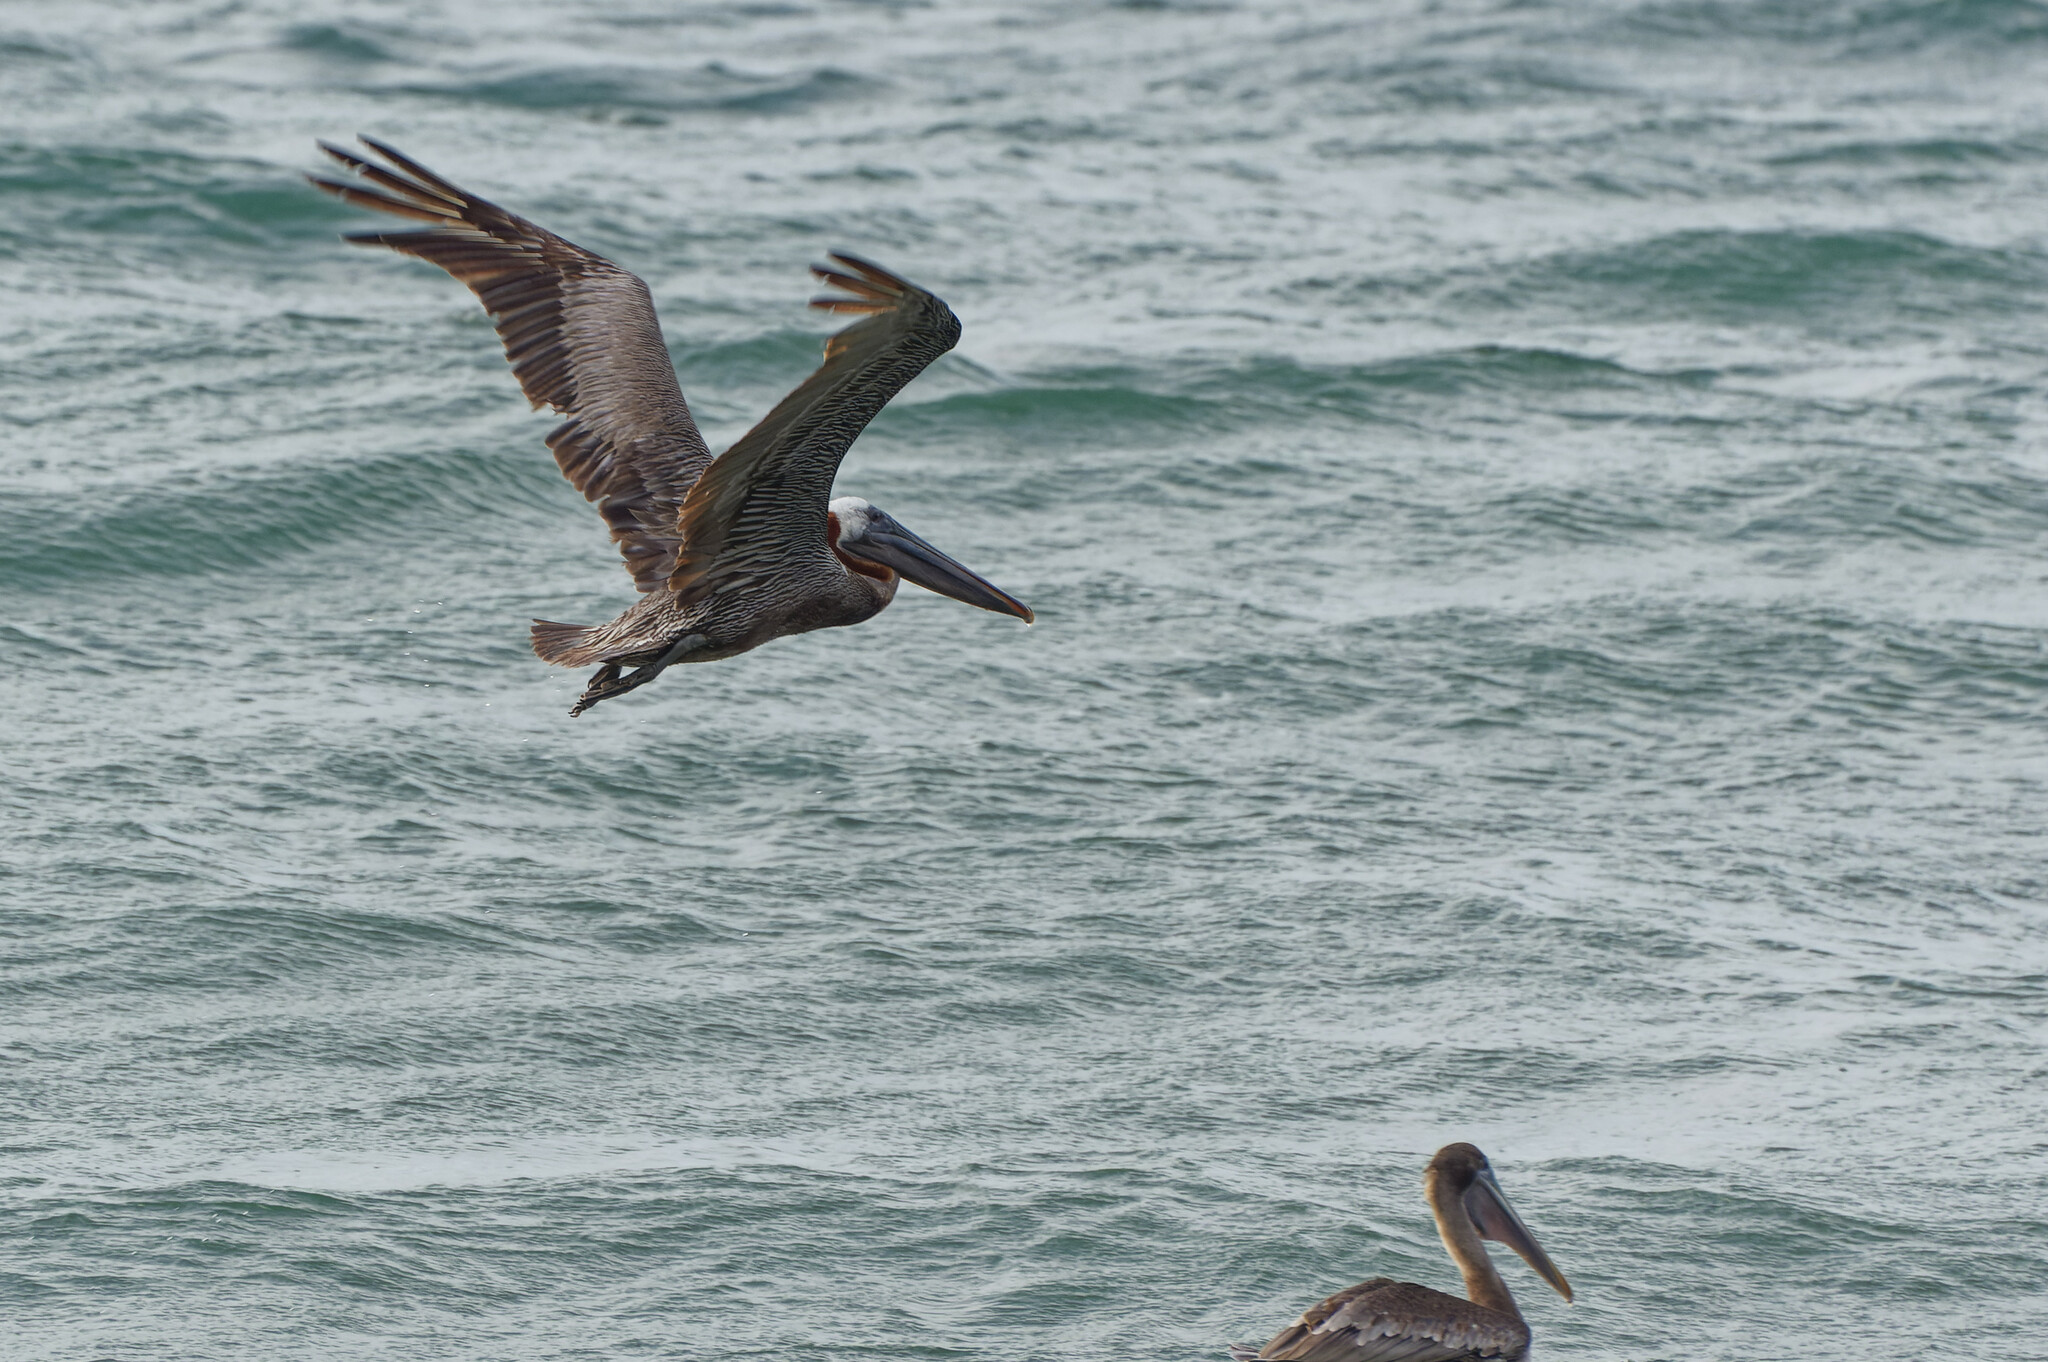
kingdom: Animalia
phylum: Chordata
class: Aves
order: Pelecaniformes
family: Pelecanidae
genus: Pelecanus
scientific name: Pelecanus occidentalis
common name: Brown pelican
